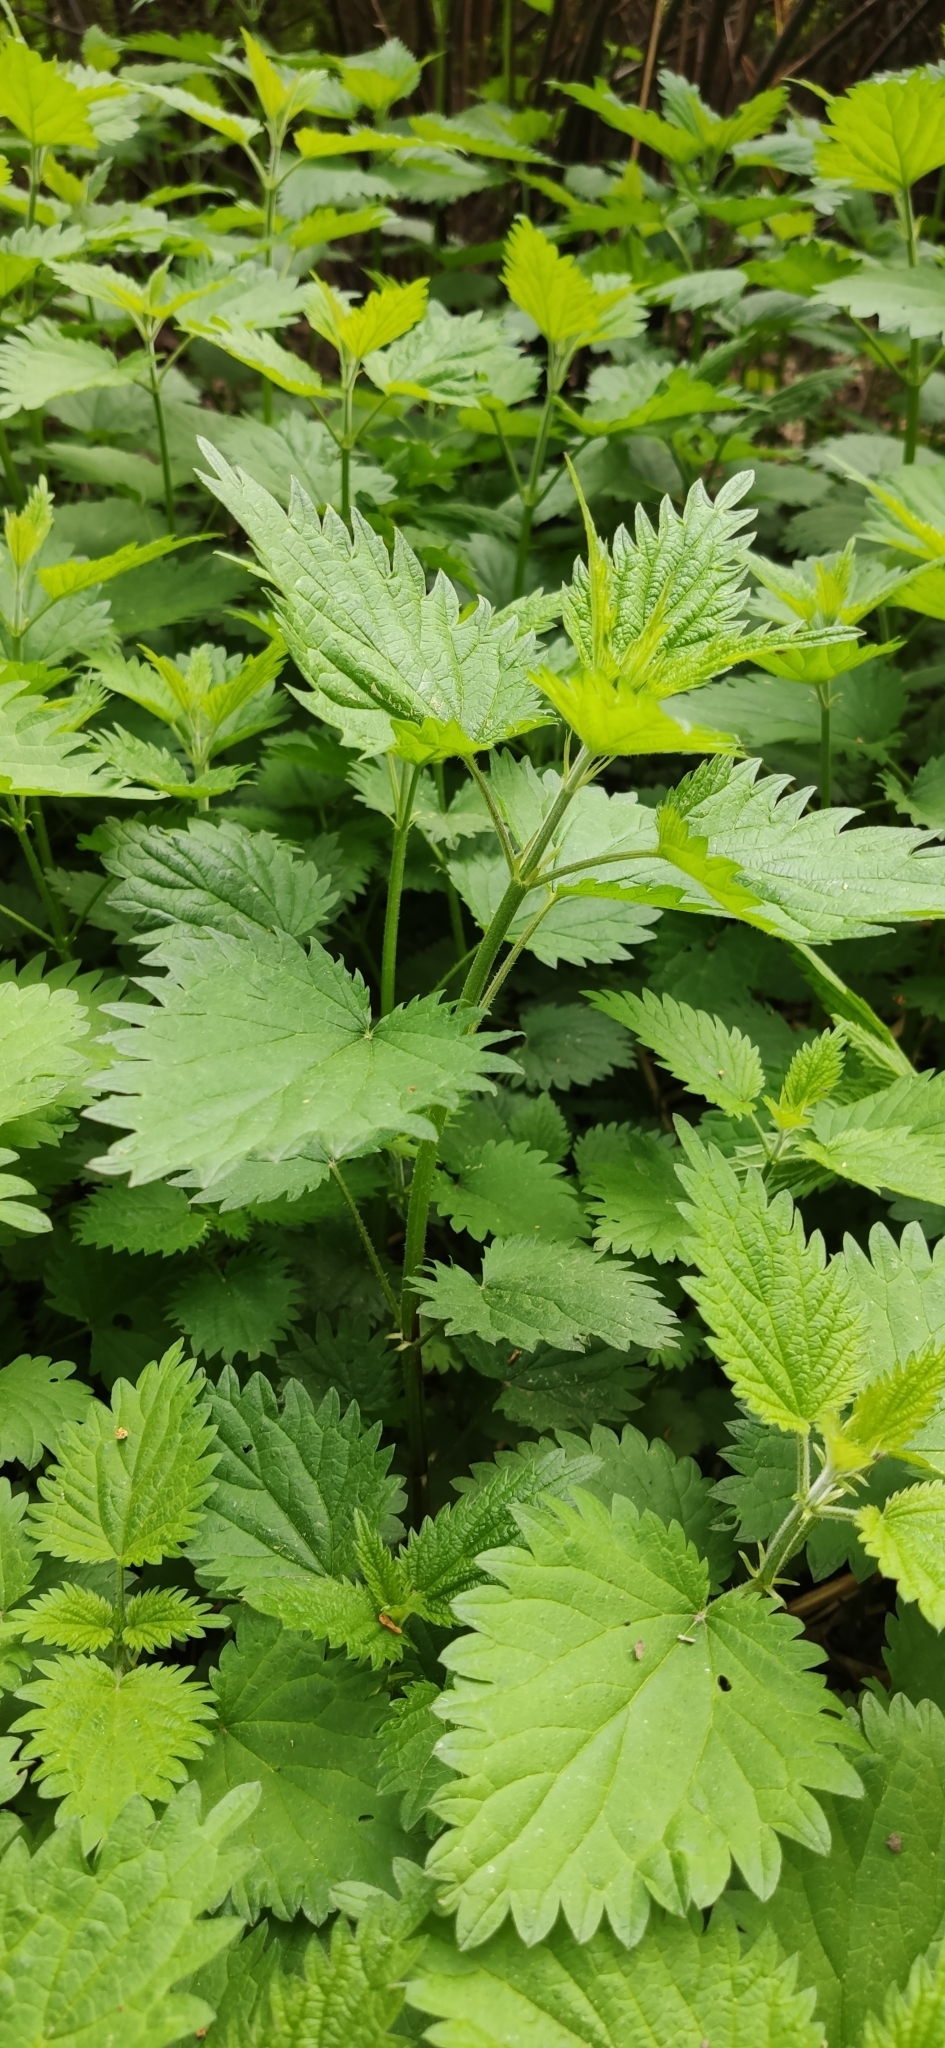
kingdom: Plantae
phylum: Tracheophyta
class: Magnoliopsida
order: Rosales
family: Urticaceae
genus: Urtica
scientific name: Urtica dioica
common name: Common nettle
